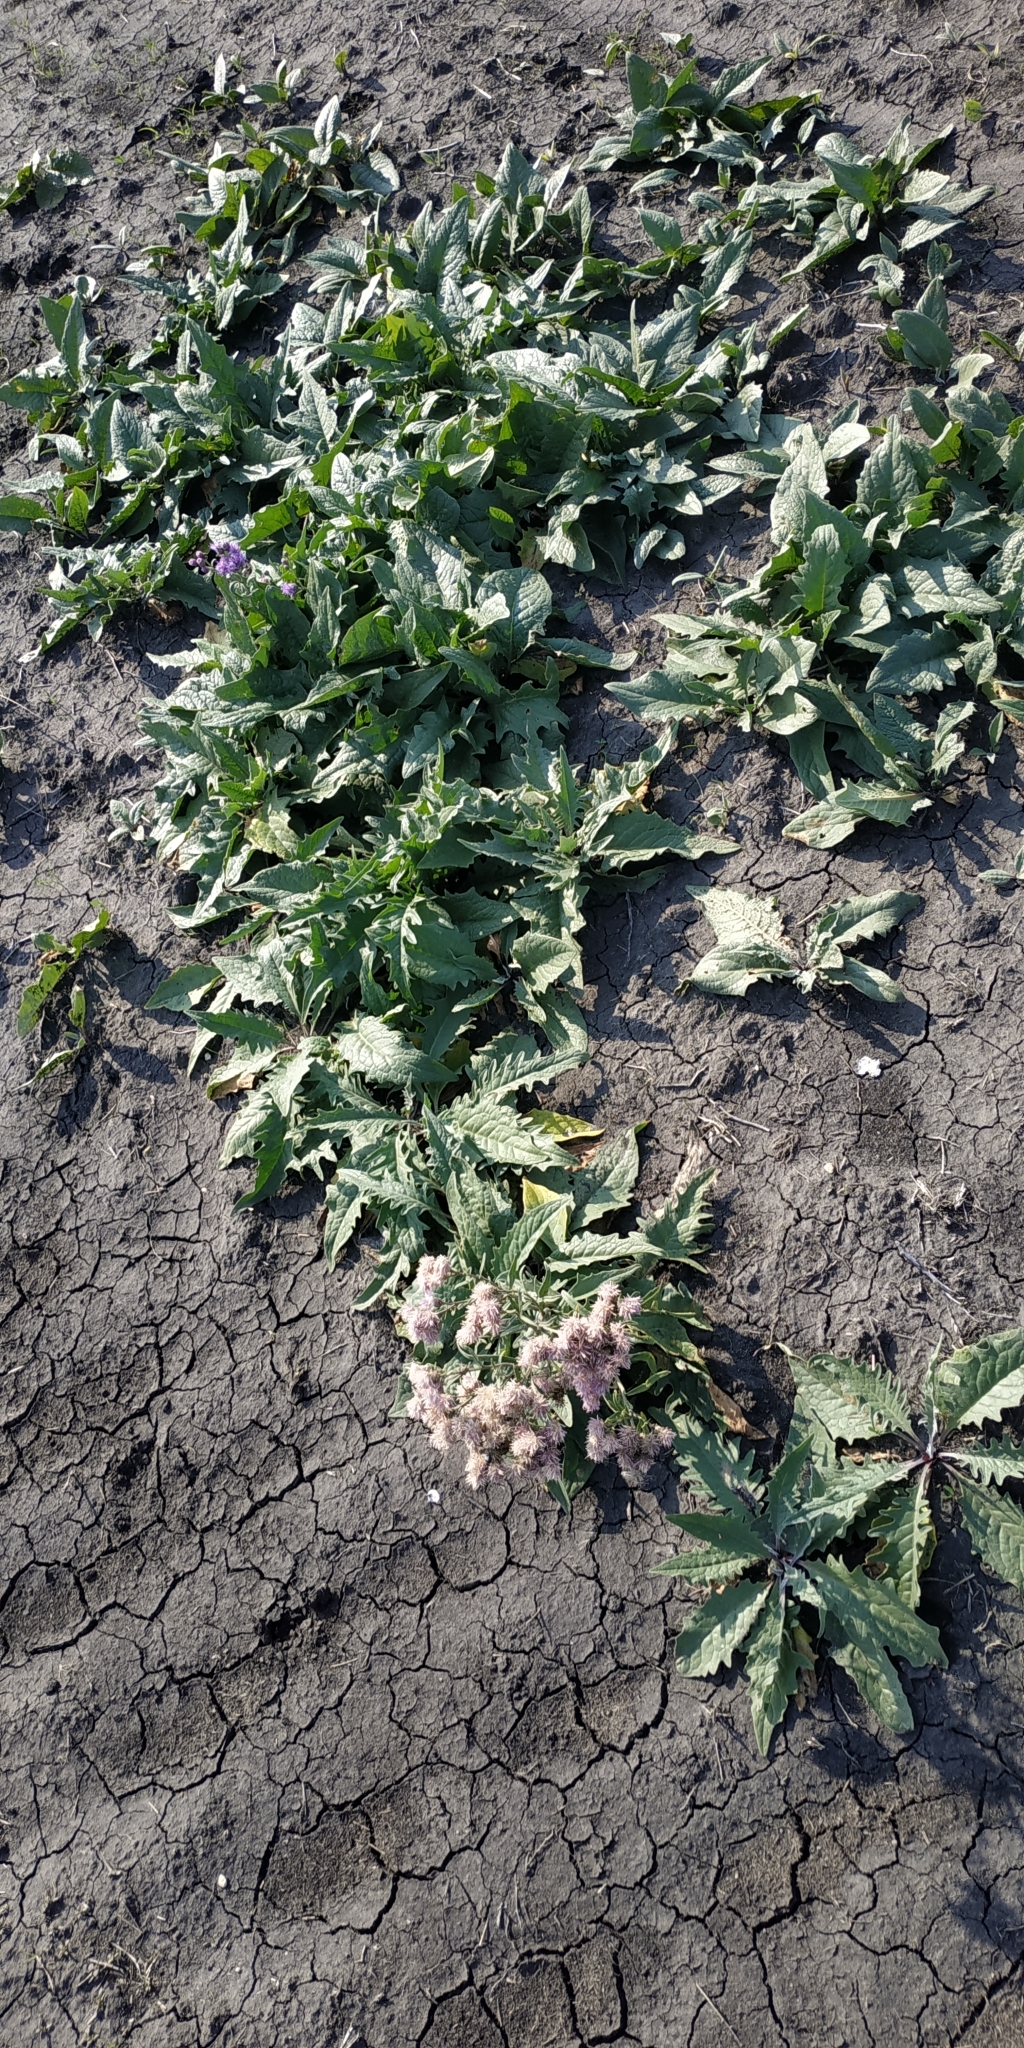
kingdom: Plantae
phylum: Tracheophyta
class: Magnoliopsida
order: Asterales
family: Asteraceae
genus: Saussurea
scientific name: Saussurea amara
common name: Alberta sawwort
